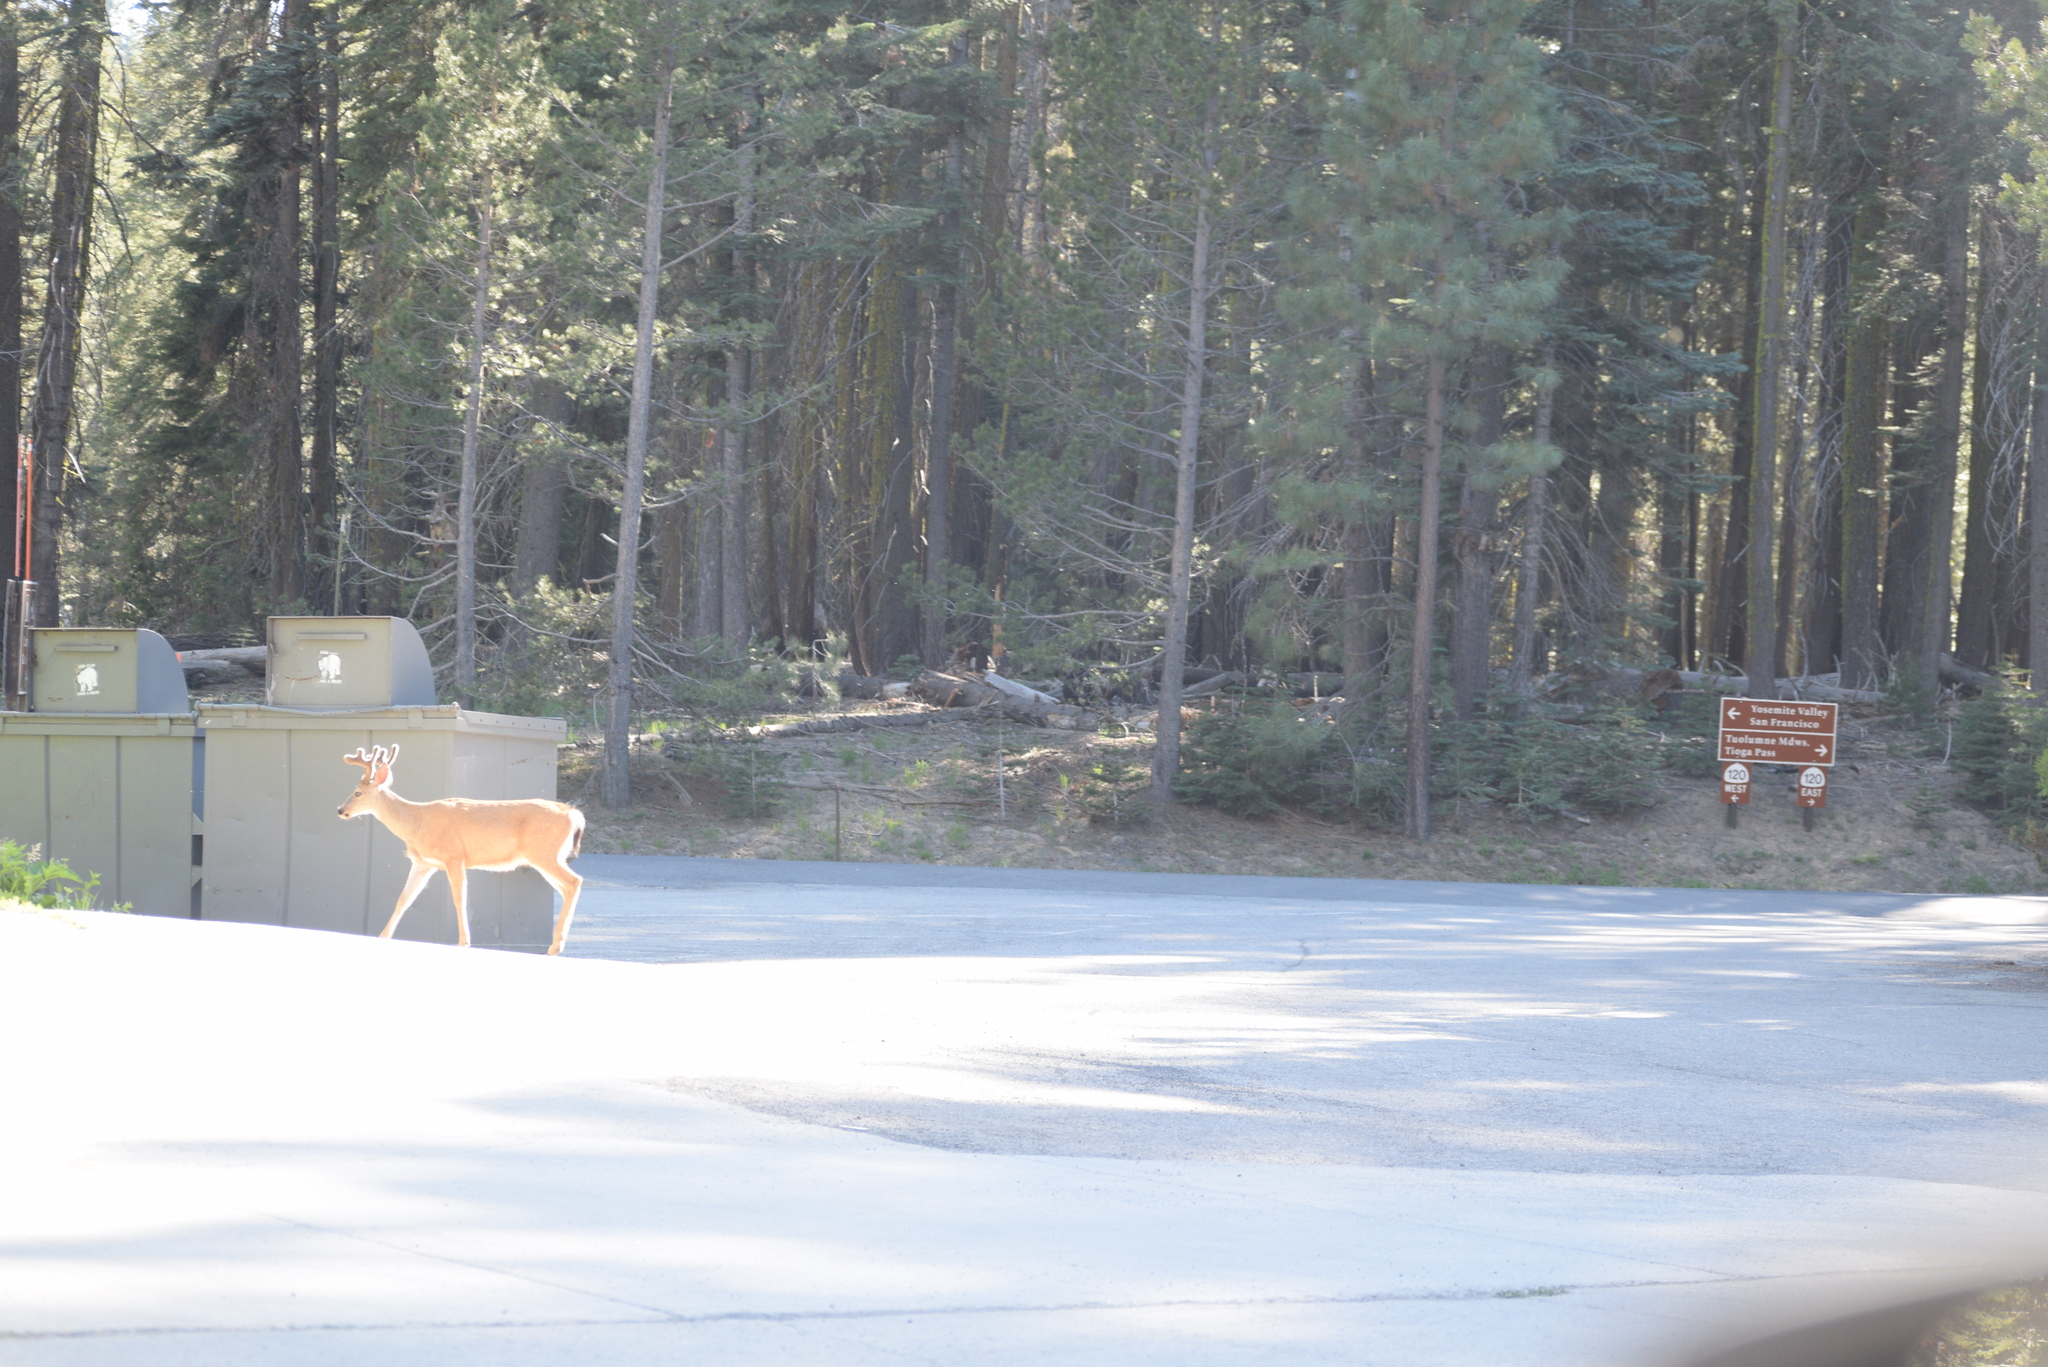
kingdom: Animalia
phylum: Chordata
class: Mammalia
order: Artiodactyla
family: Cervidae
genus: Odocoileus
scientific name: Odocoileus hemionus
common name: Mule deer
